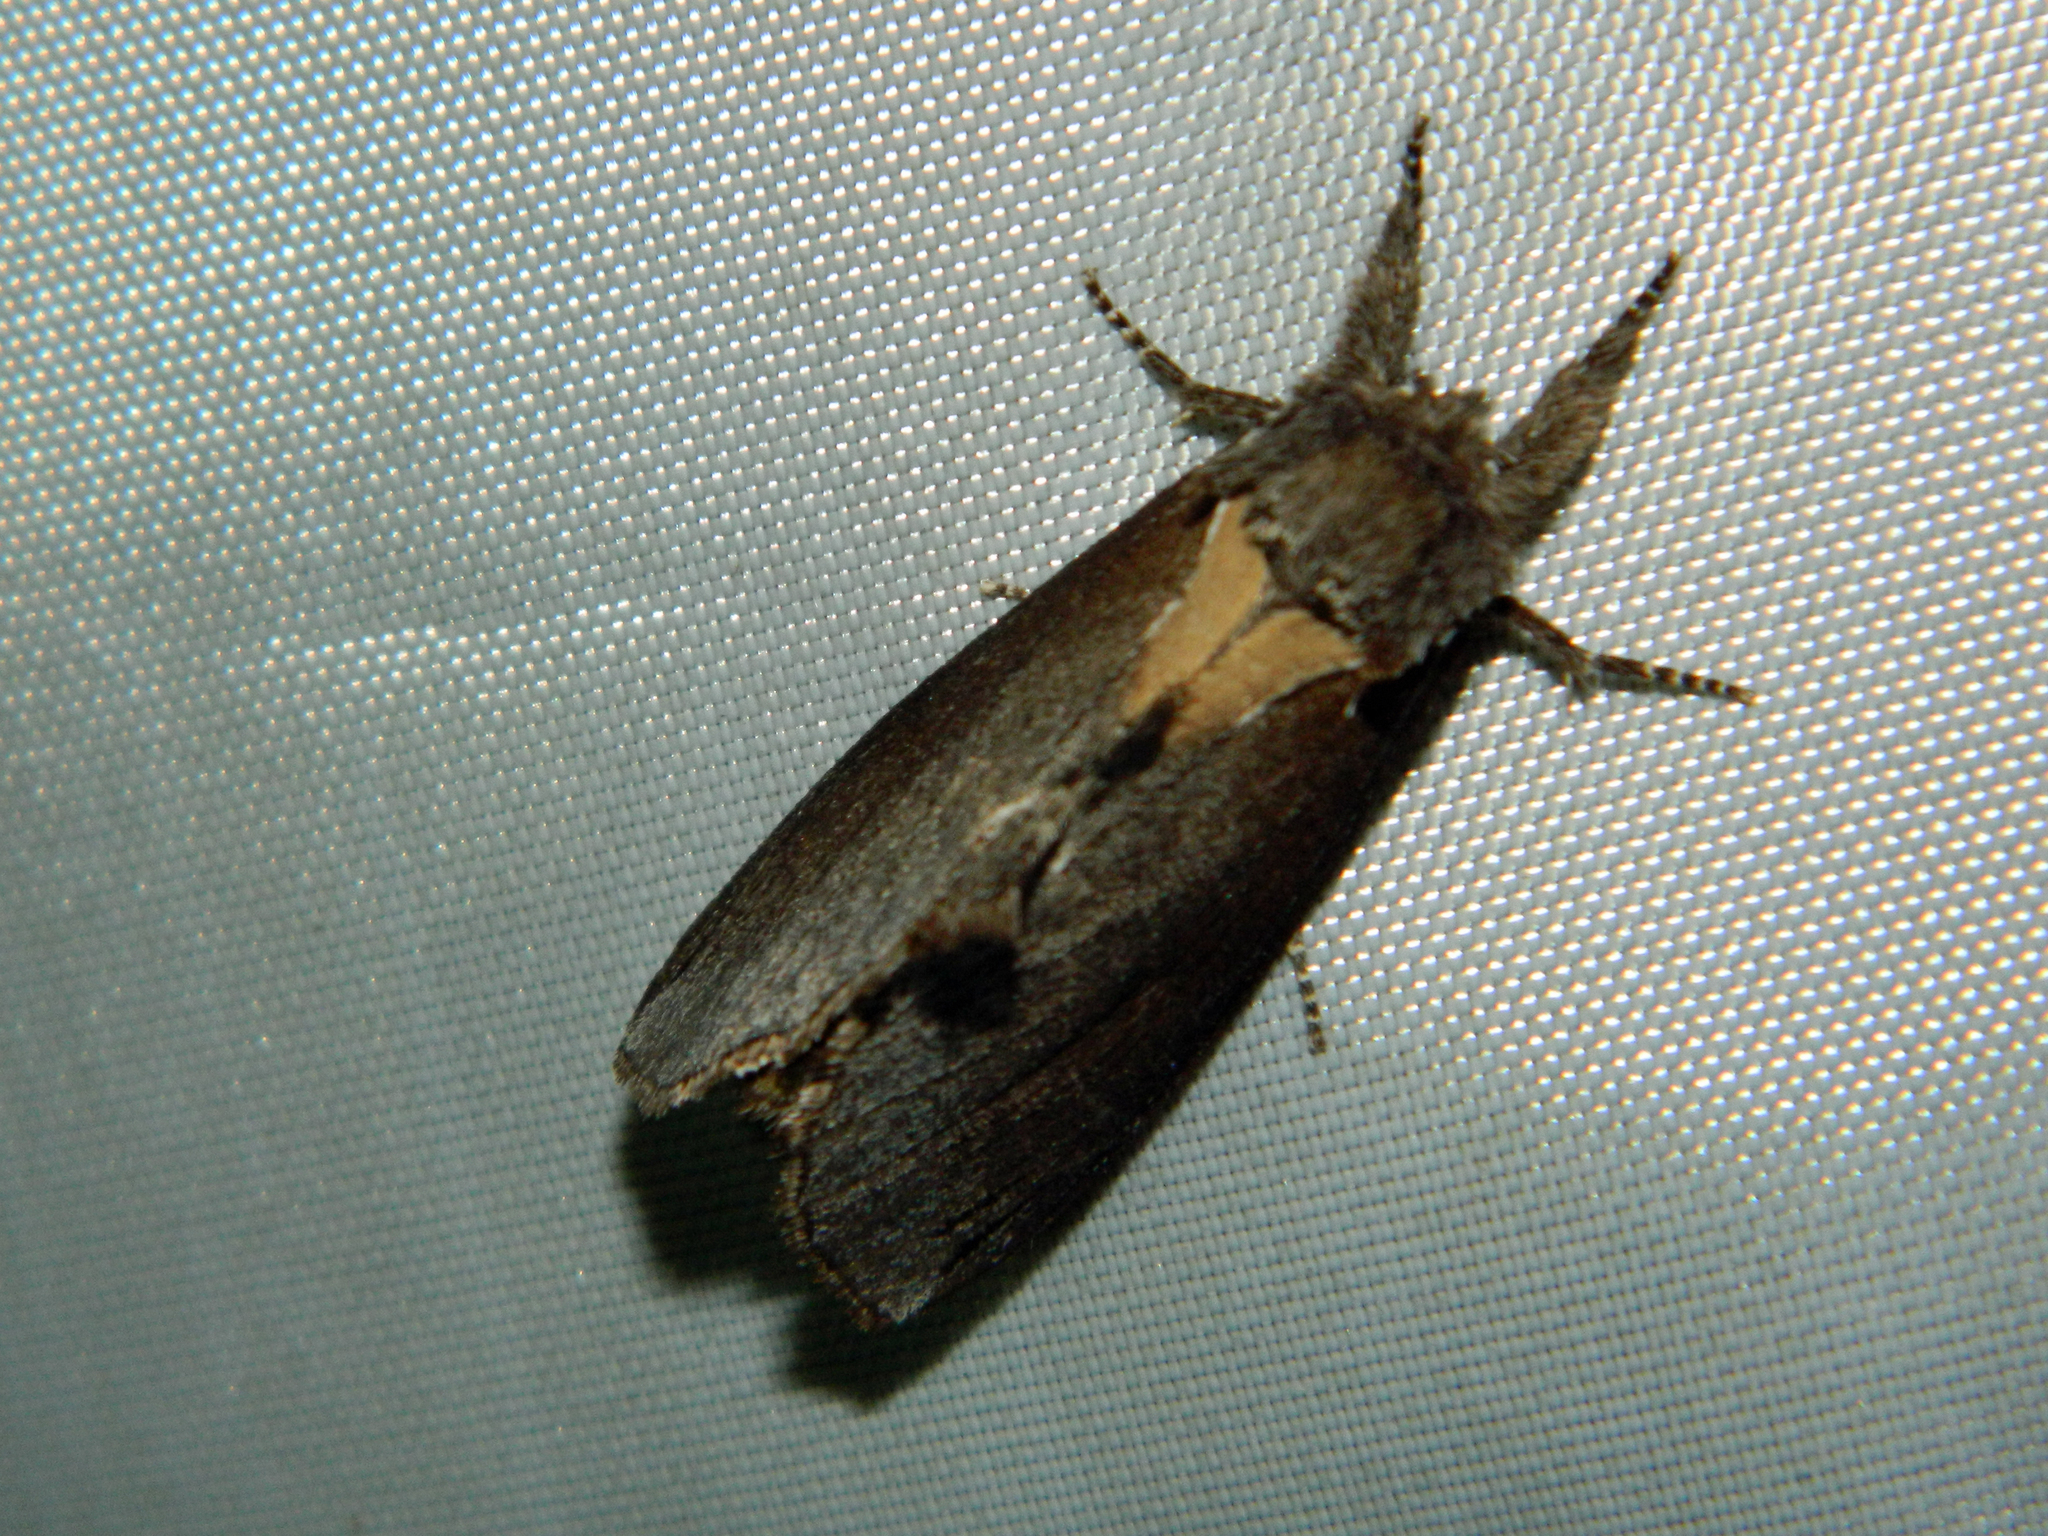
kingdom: Animalia
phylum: Arthropoda
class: Insecta
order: Lepidoptera
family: Notodontidae
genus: Pheosidea
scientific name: Pheosidea elegans
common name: Elegant prominent
